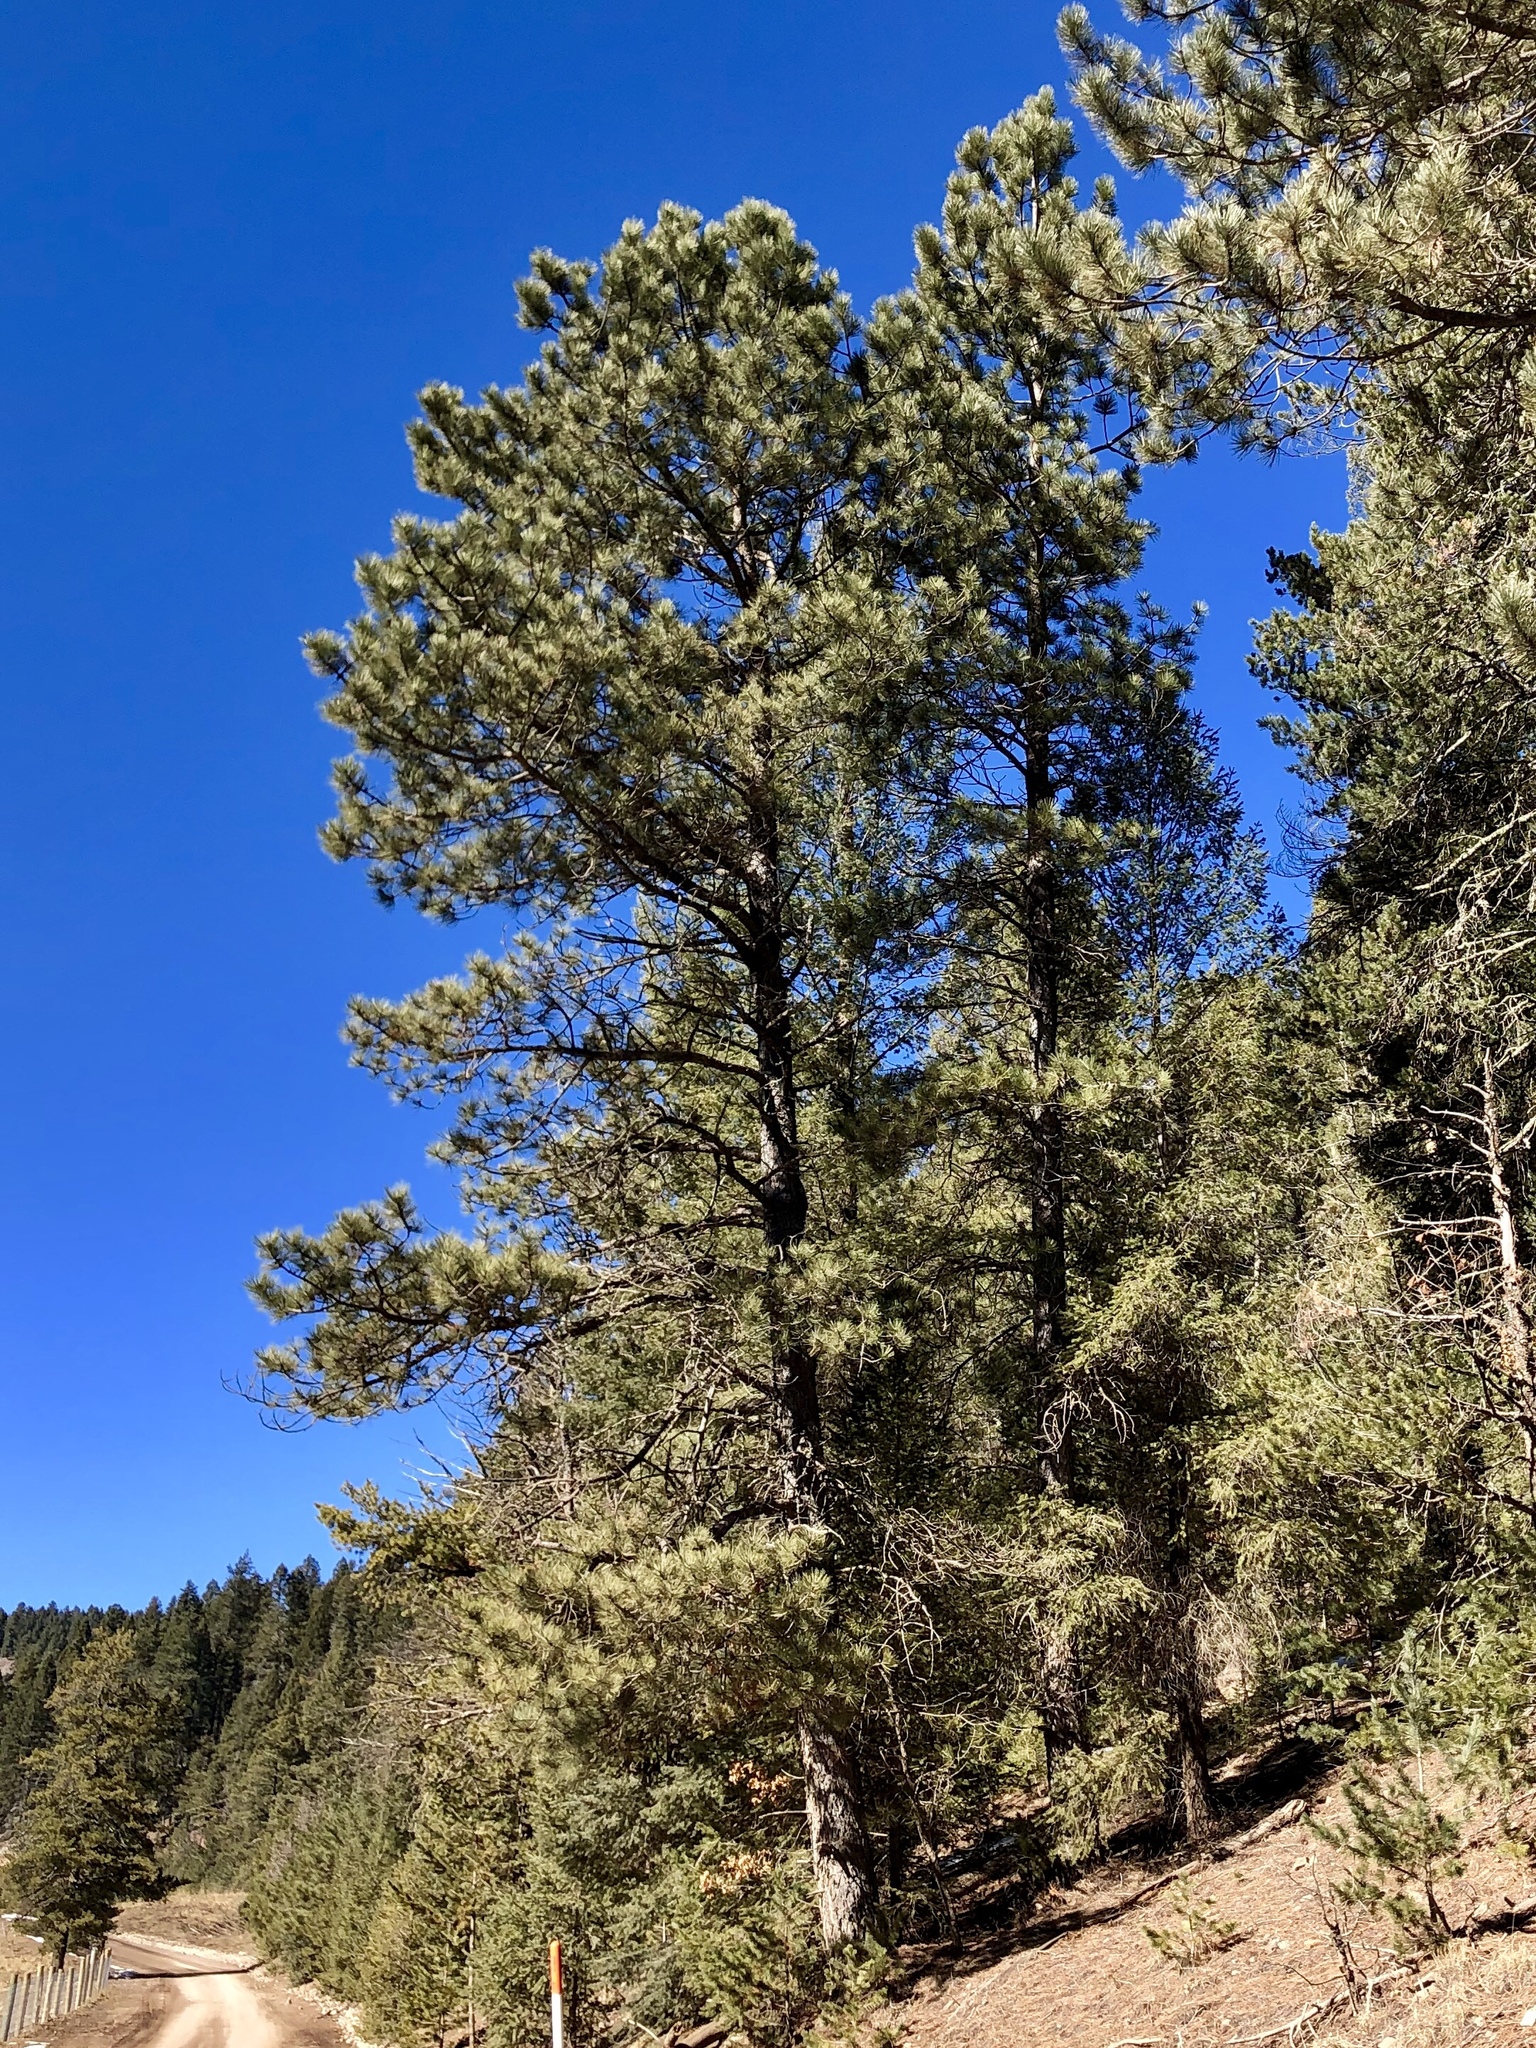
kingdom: Plantae
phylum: Tracheophyta
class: Pinopsida
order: Pinales
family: Pinaceae
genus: Pinus
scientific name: Pinus ponderosa
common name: Western yellow-pine
